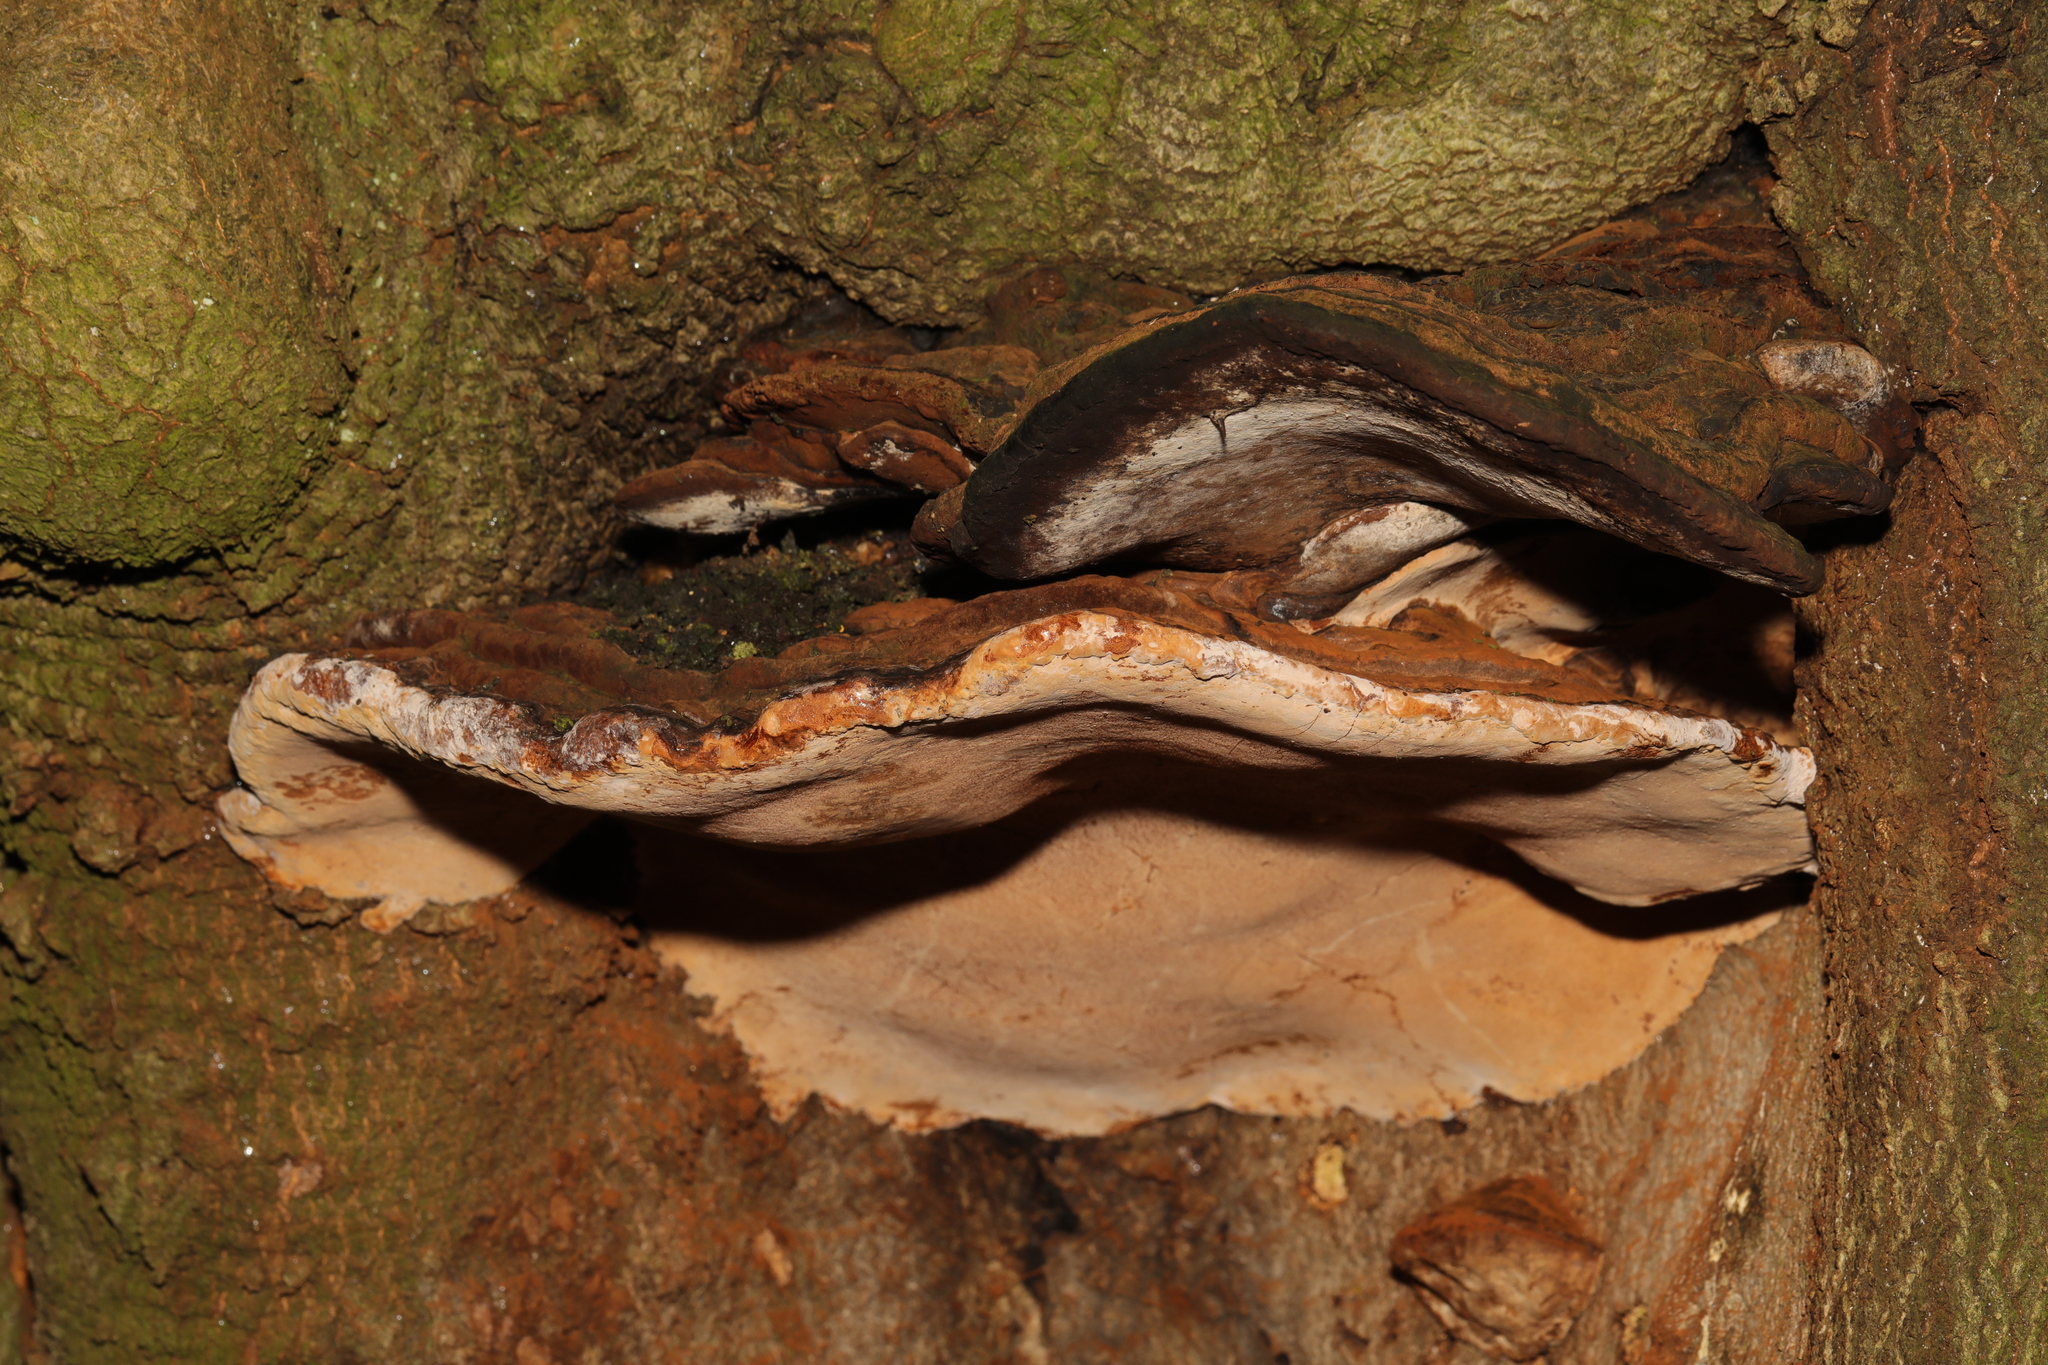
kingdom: Fungi
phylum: Basidiomycota
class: Agaricomycetes
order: Polyporales
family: Polyporaceae
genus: Ganoderma
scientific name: Ganoderma applanatum
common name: Artist's bracket
